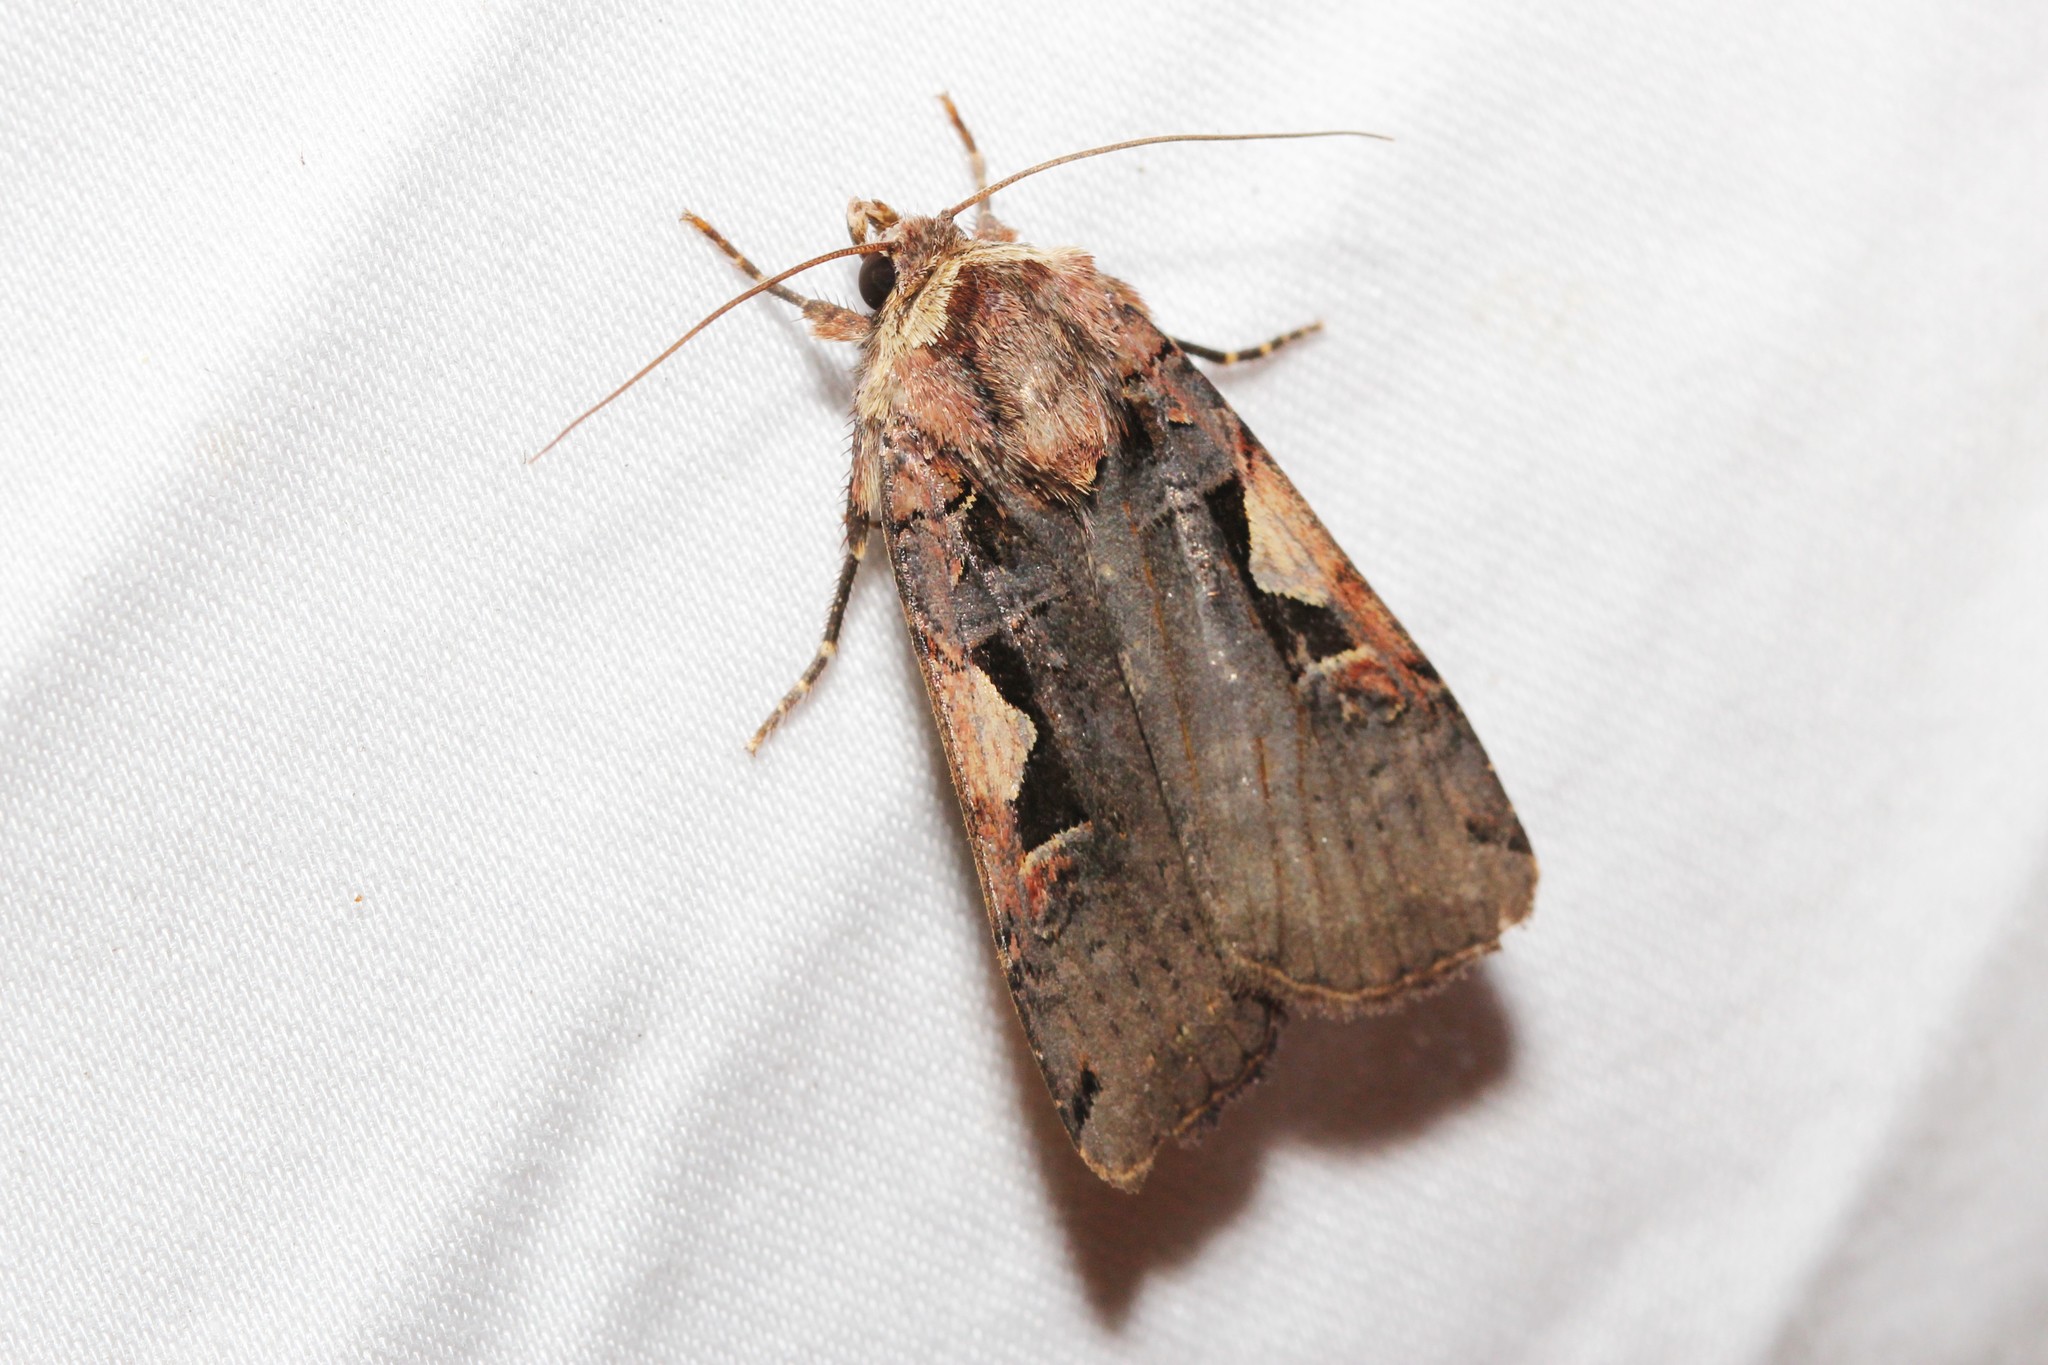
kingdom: Animalia
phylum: Arthropoda
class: Insecta
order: Lepidoptera
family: Noctuidae
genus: Xestia
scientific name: Xestia
